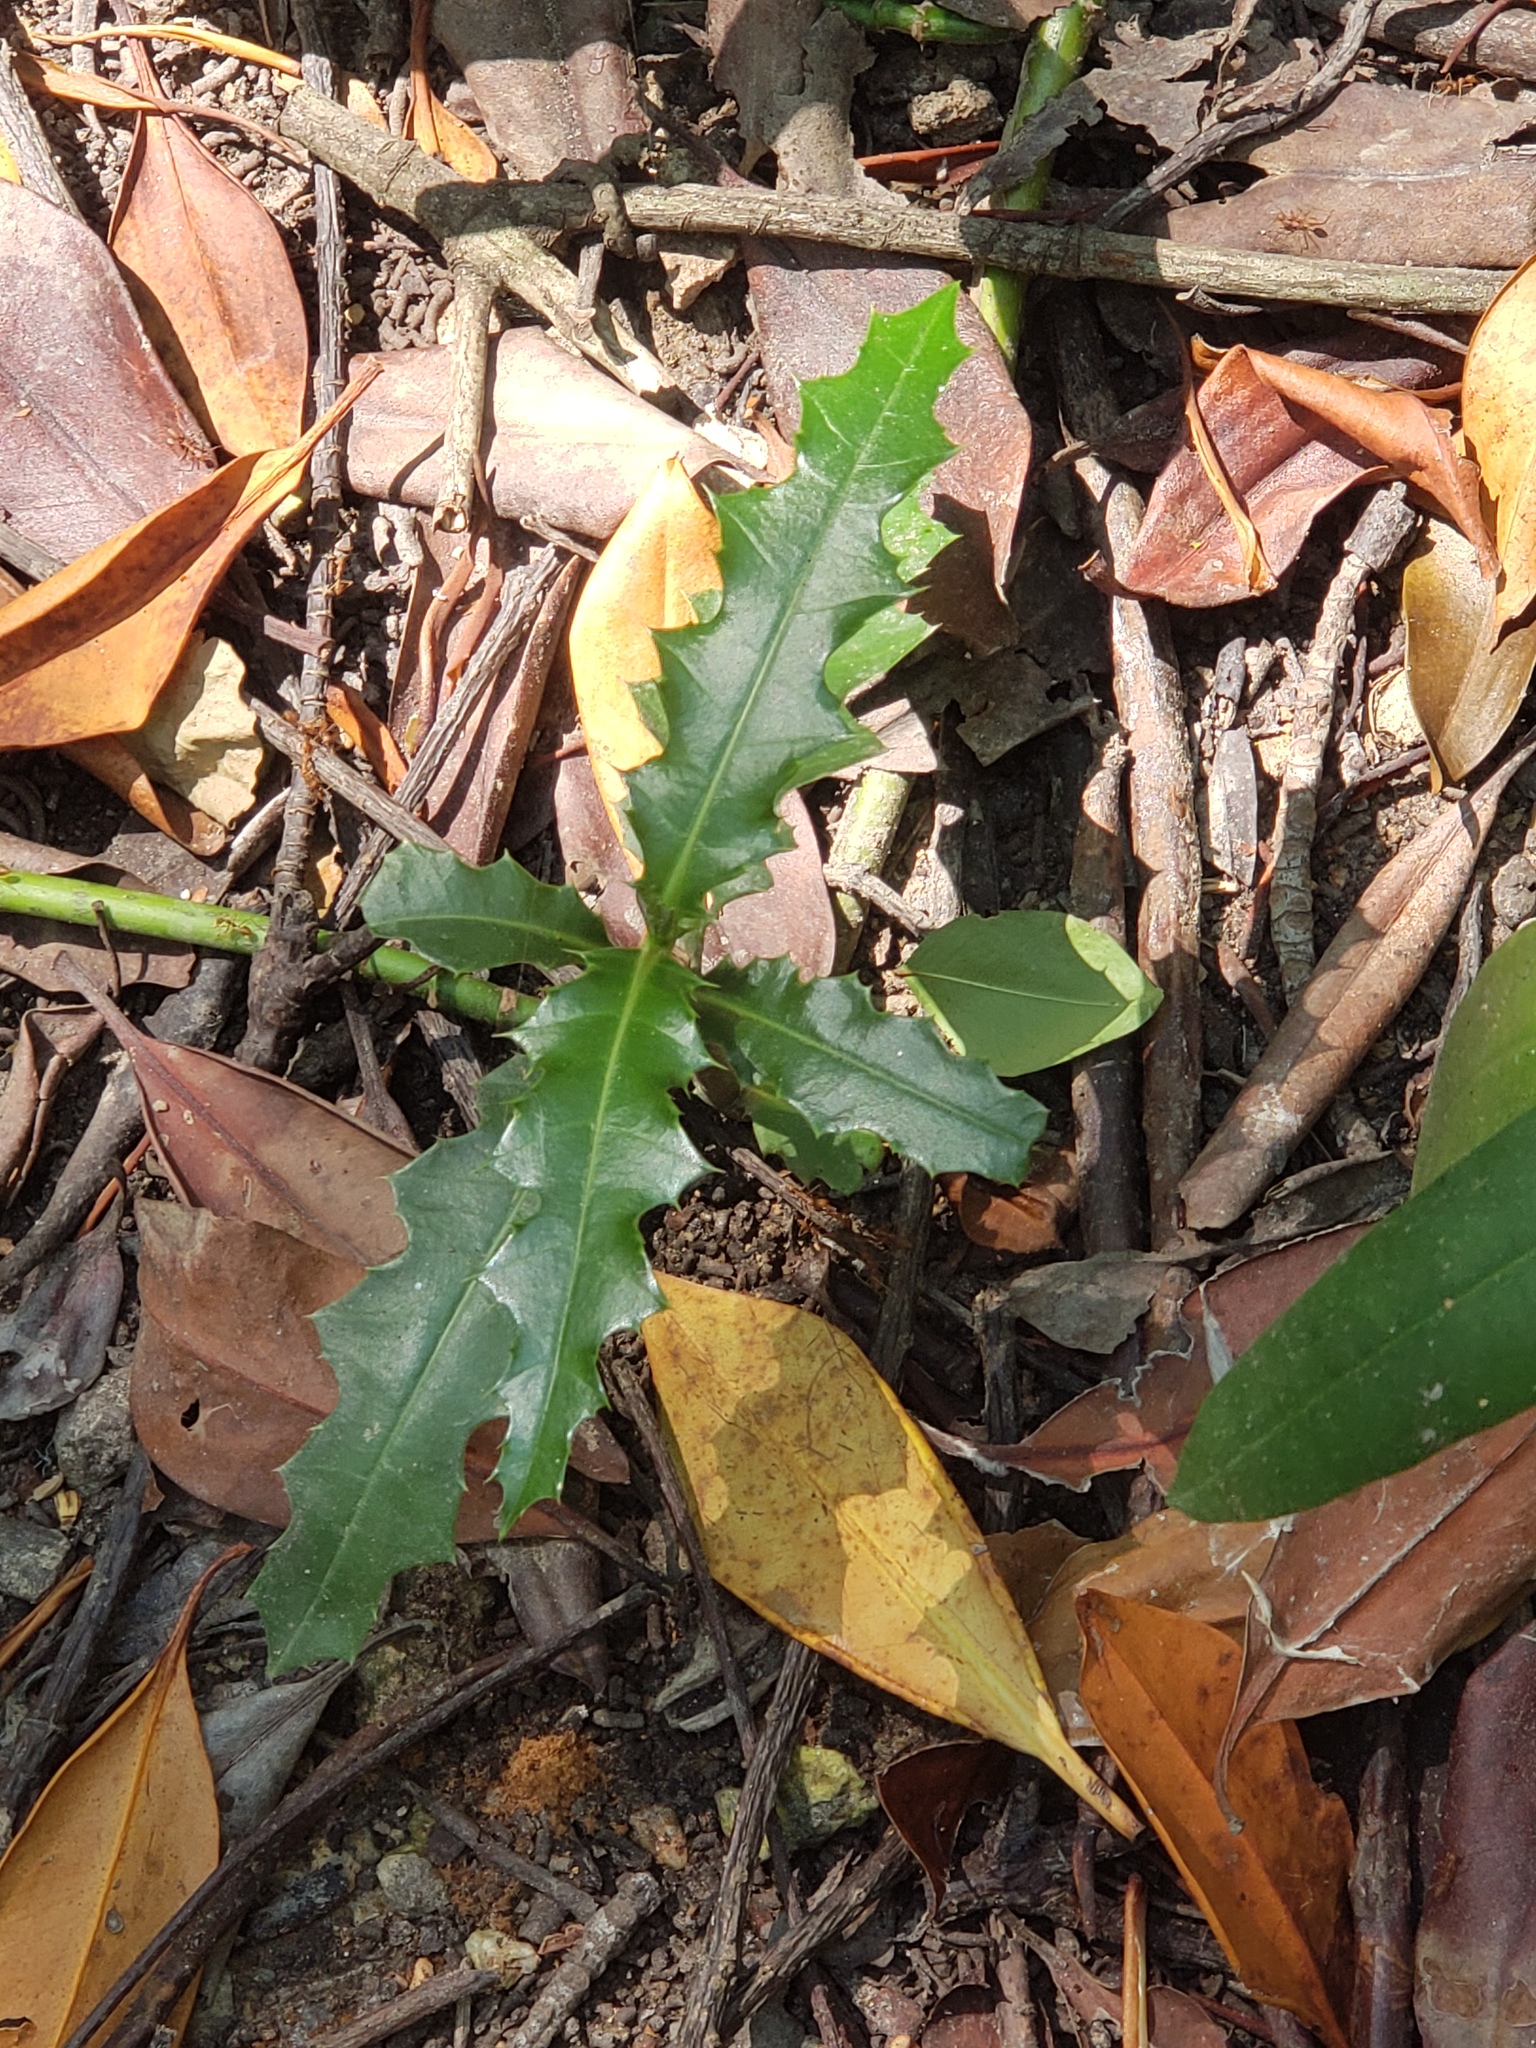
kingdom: Plantae
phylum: Tracheophyta
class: Magnoliopsida
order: Lamiales
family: Acanthaceae
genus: Acanthus
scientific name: Acanthus ilicifolius
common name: Holy mangrove
